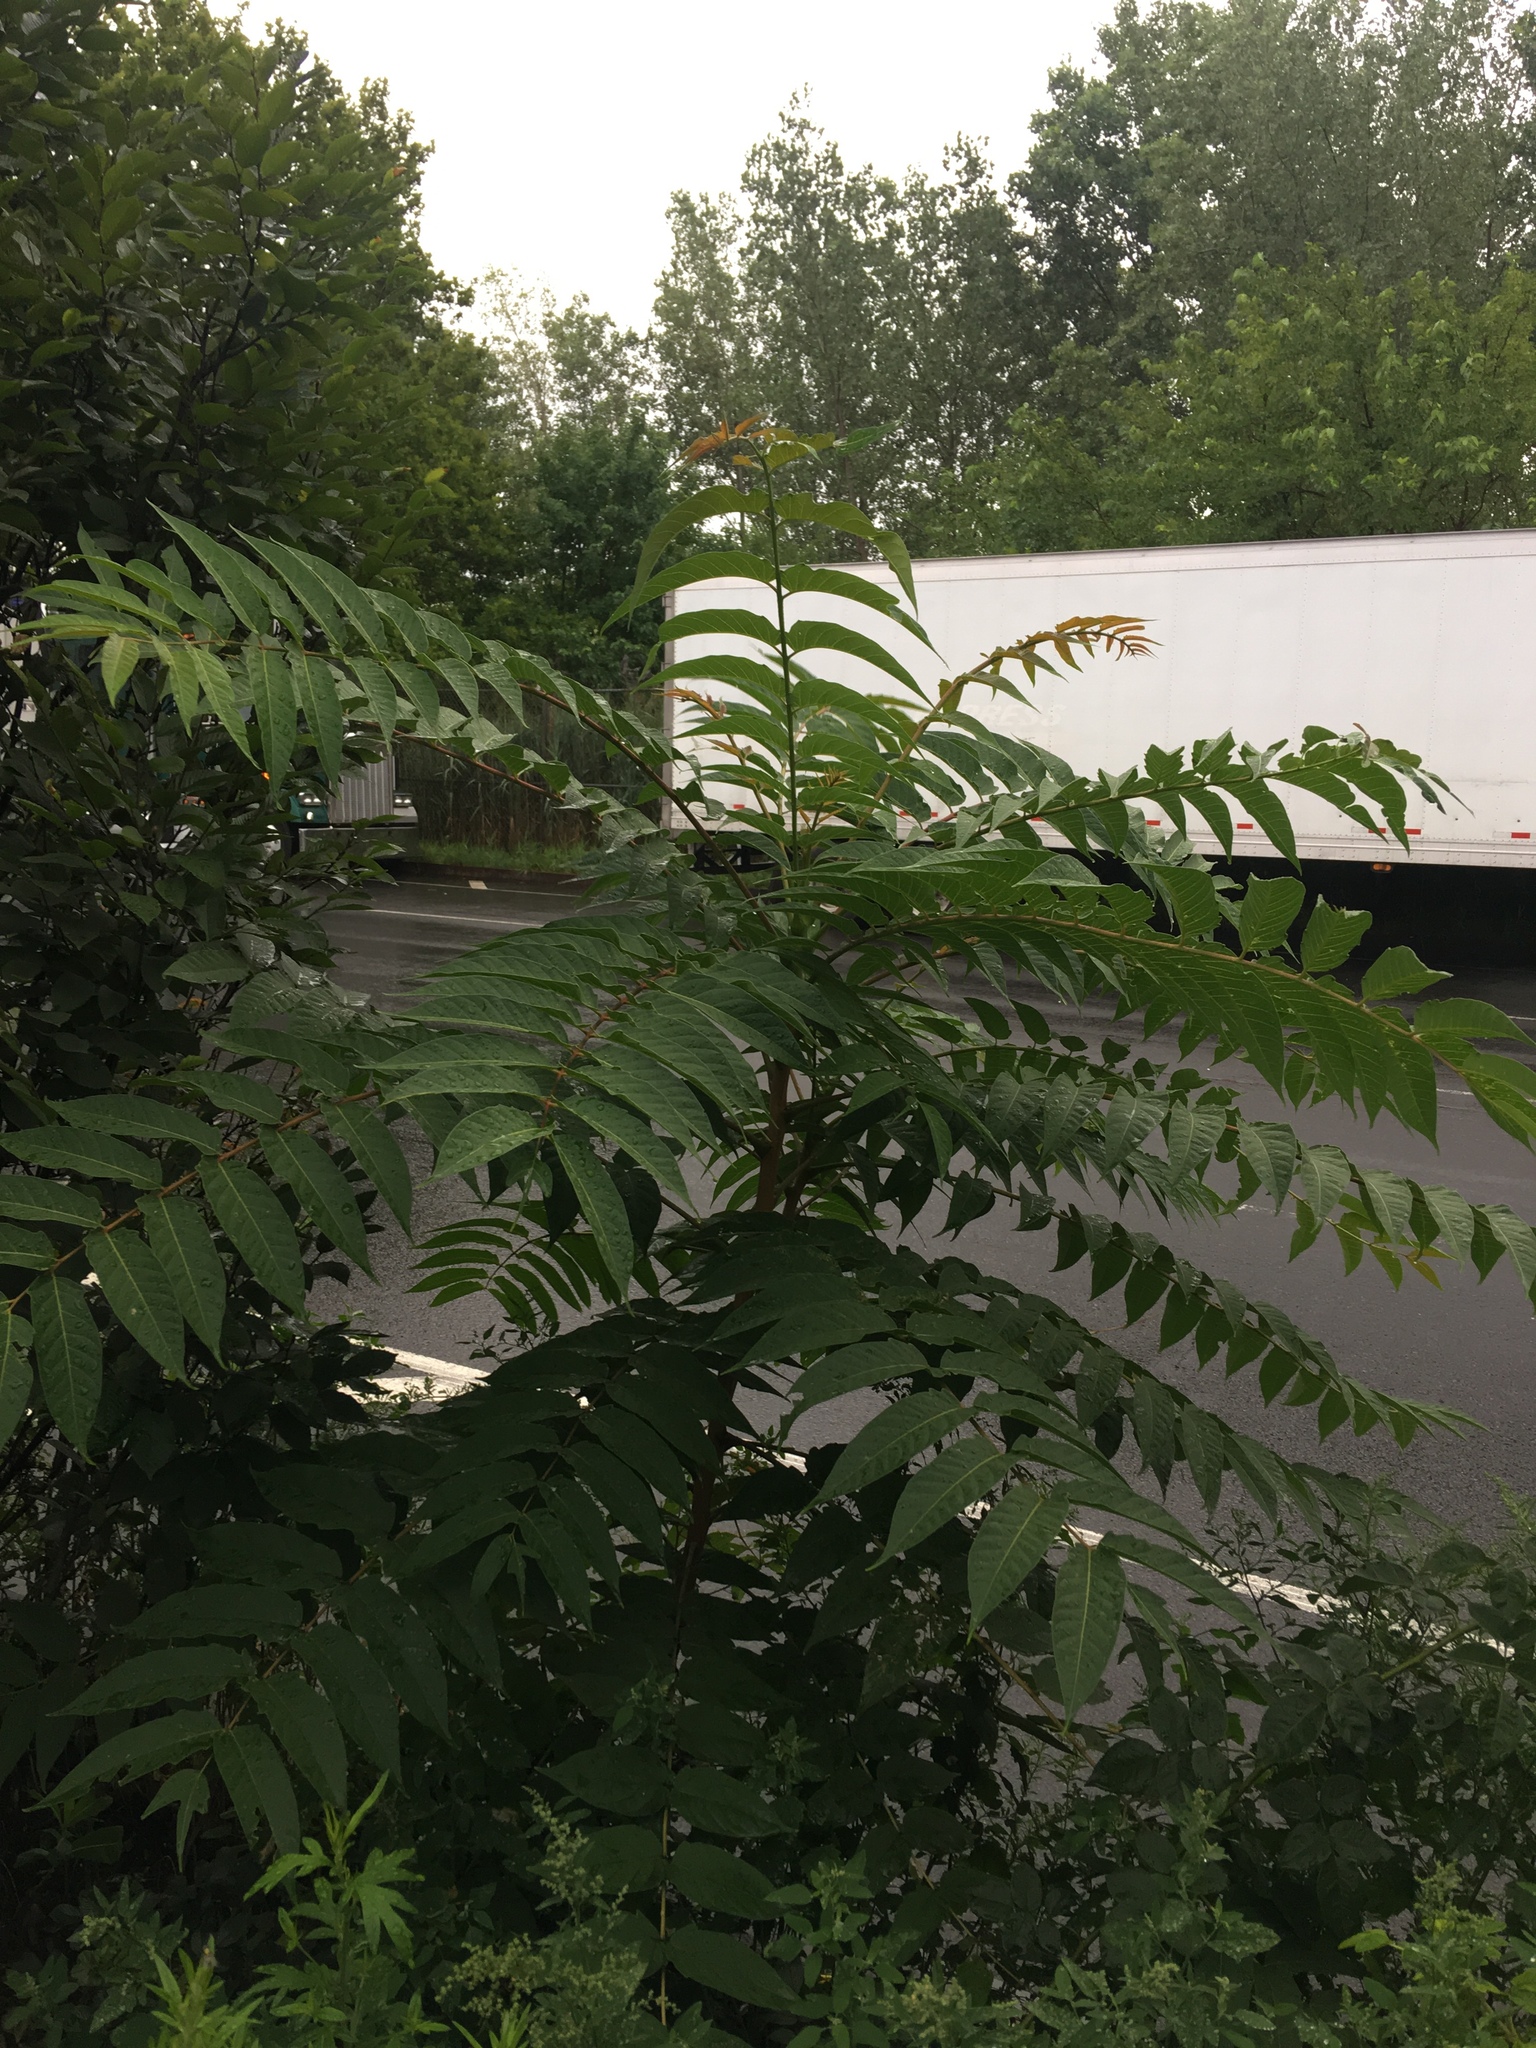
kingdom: Plantae
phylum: Tracheophyta
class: Magnoliopsida
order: Sapindales
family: Simaroubaceae
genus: Ailanthus
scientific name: Ailanthus altissima
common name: Tree-of-heaven
